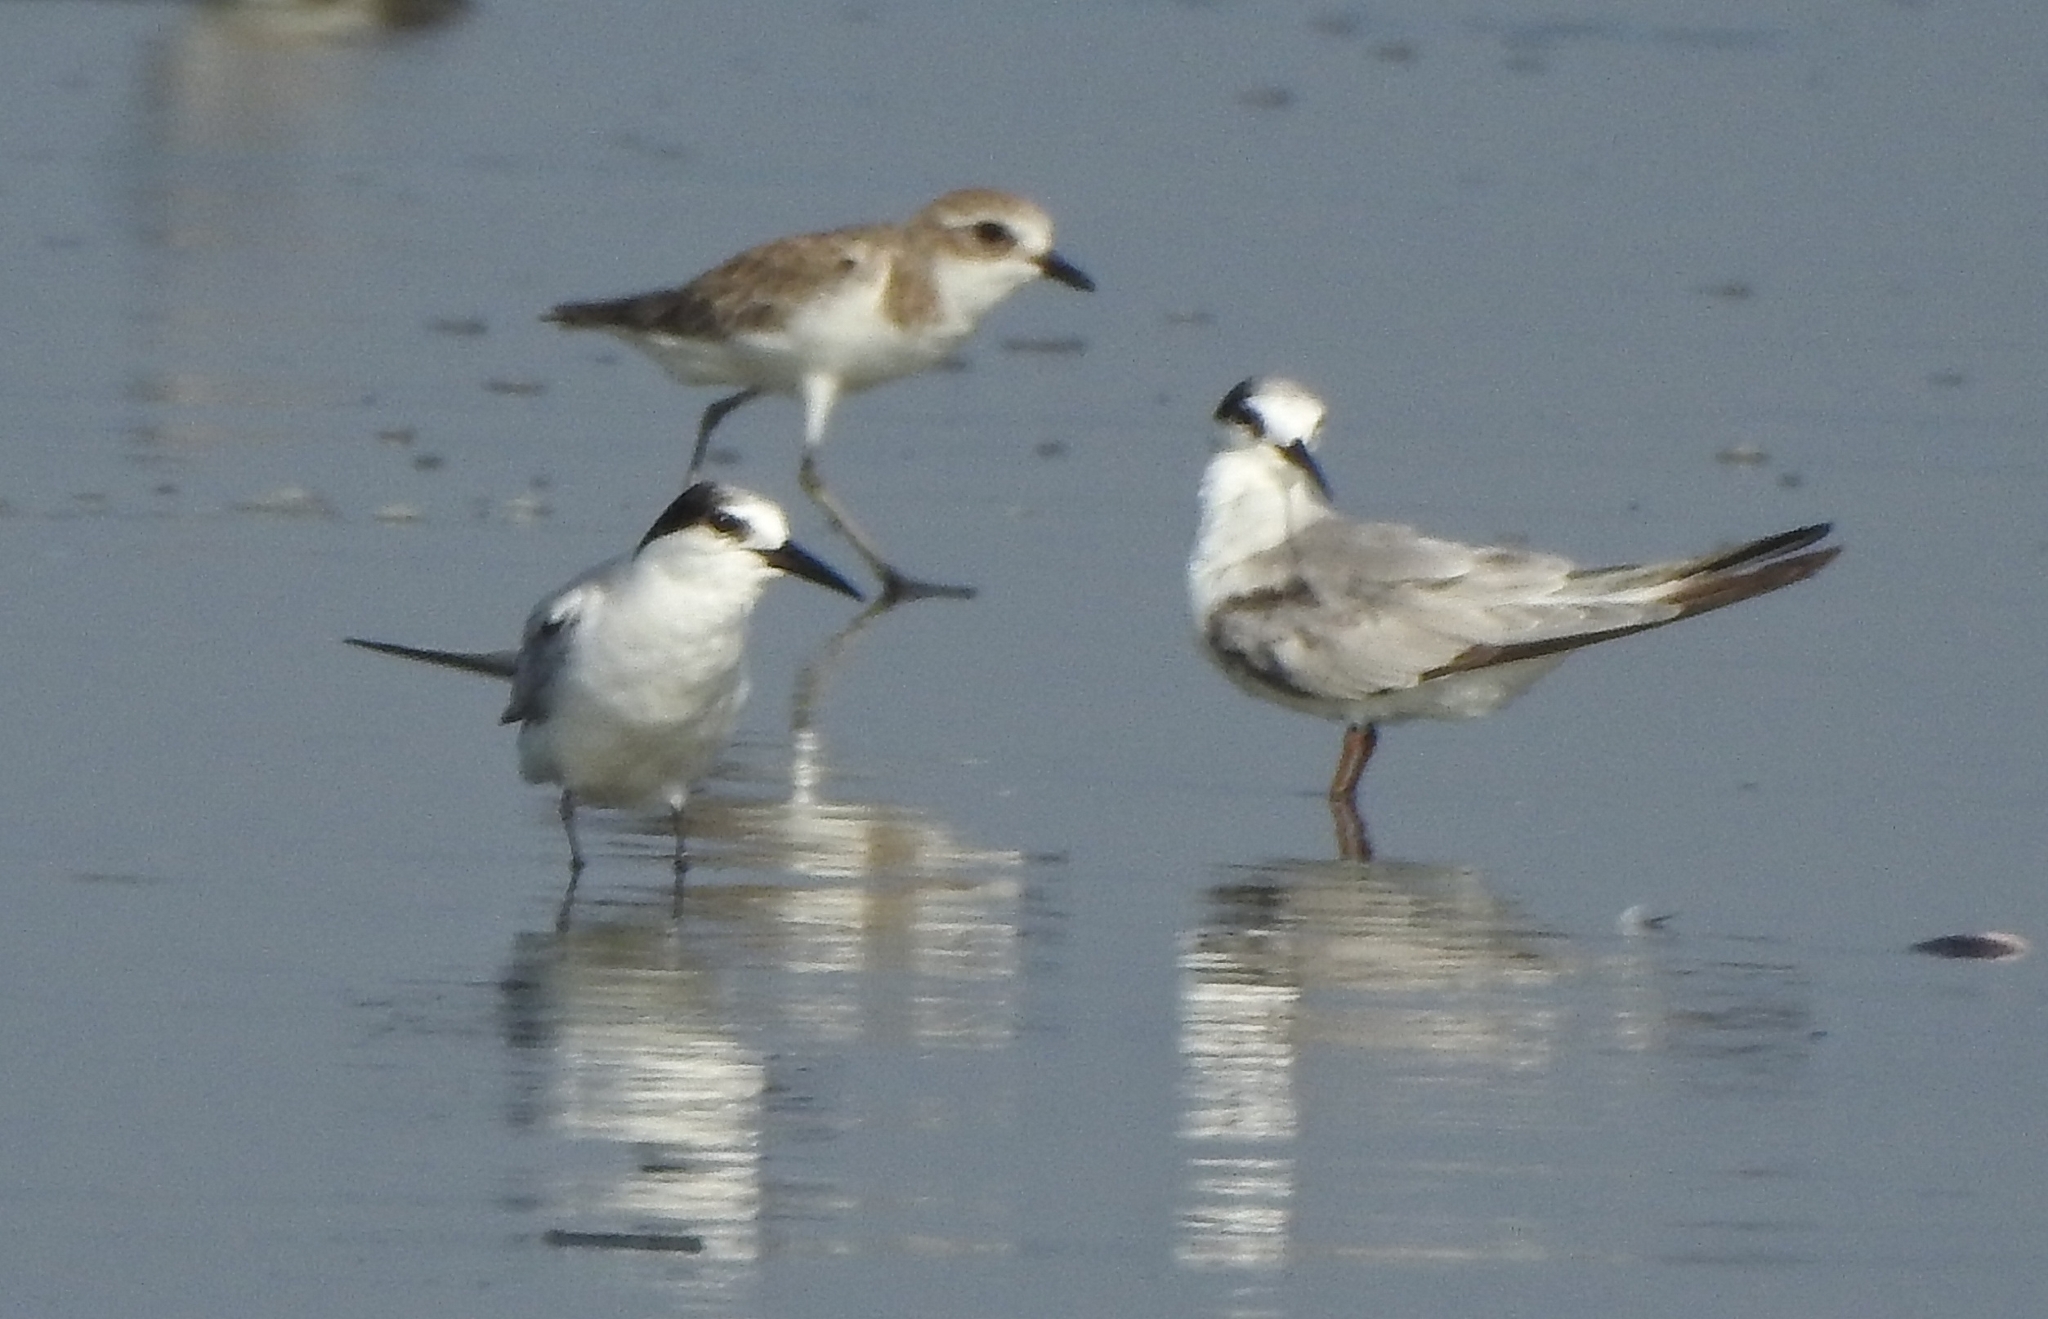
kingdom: Animalia
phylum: Chordata
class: Aves
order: Charadriiformes
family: Charadriidae
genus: Anarhynchus
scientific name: Anarhynchus
